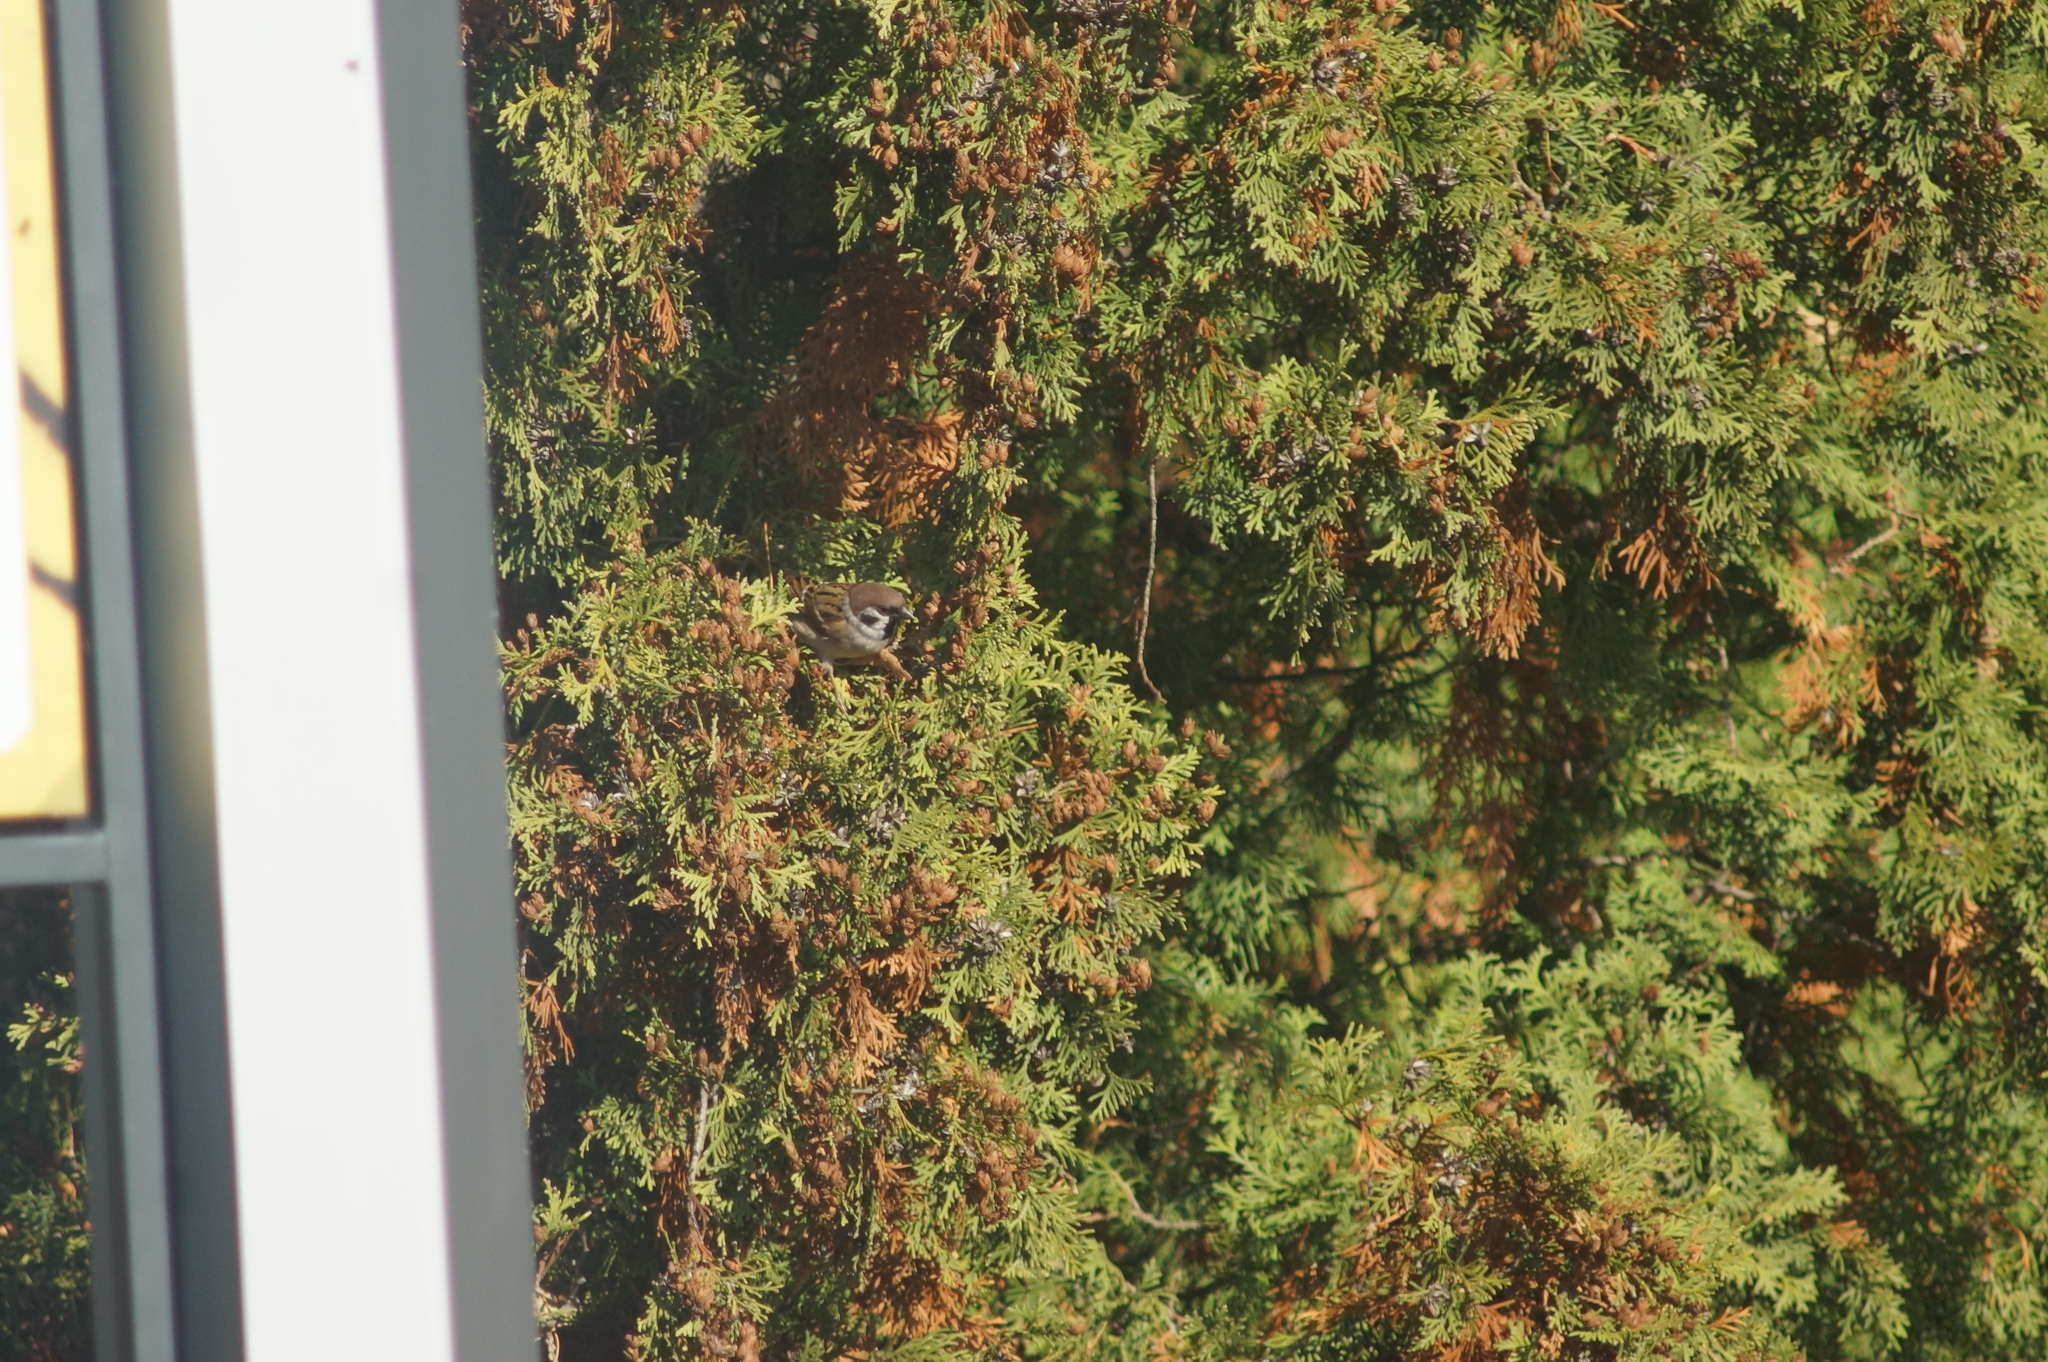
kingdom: Animalia
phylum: Chordata
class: Aves
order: Passeriformes
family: Passeridae
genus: Passer
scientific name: Passer montanus
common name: Eurasian tree sparrow
